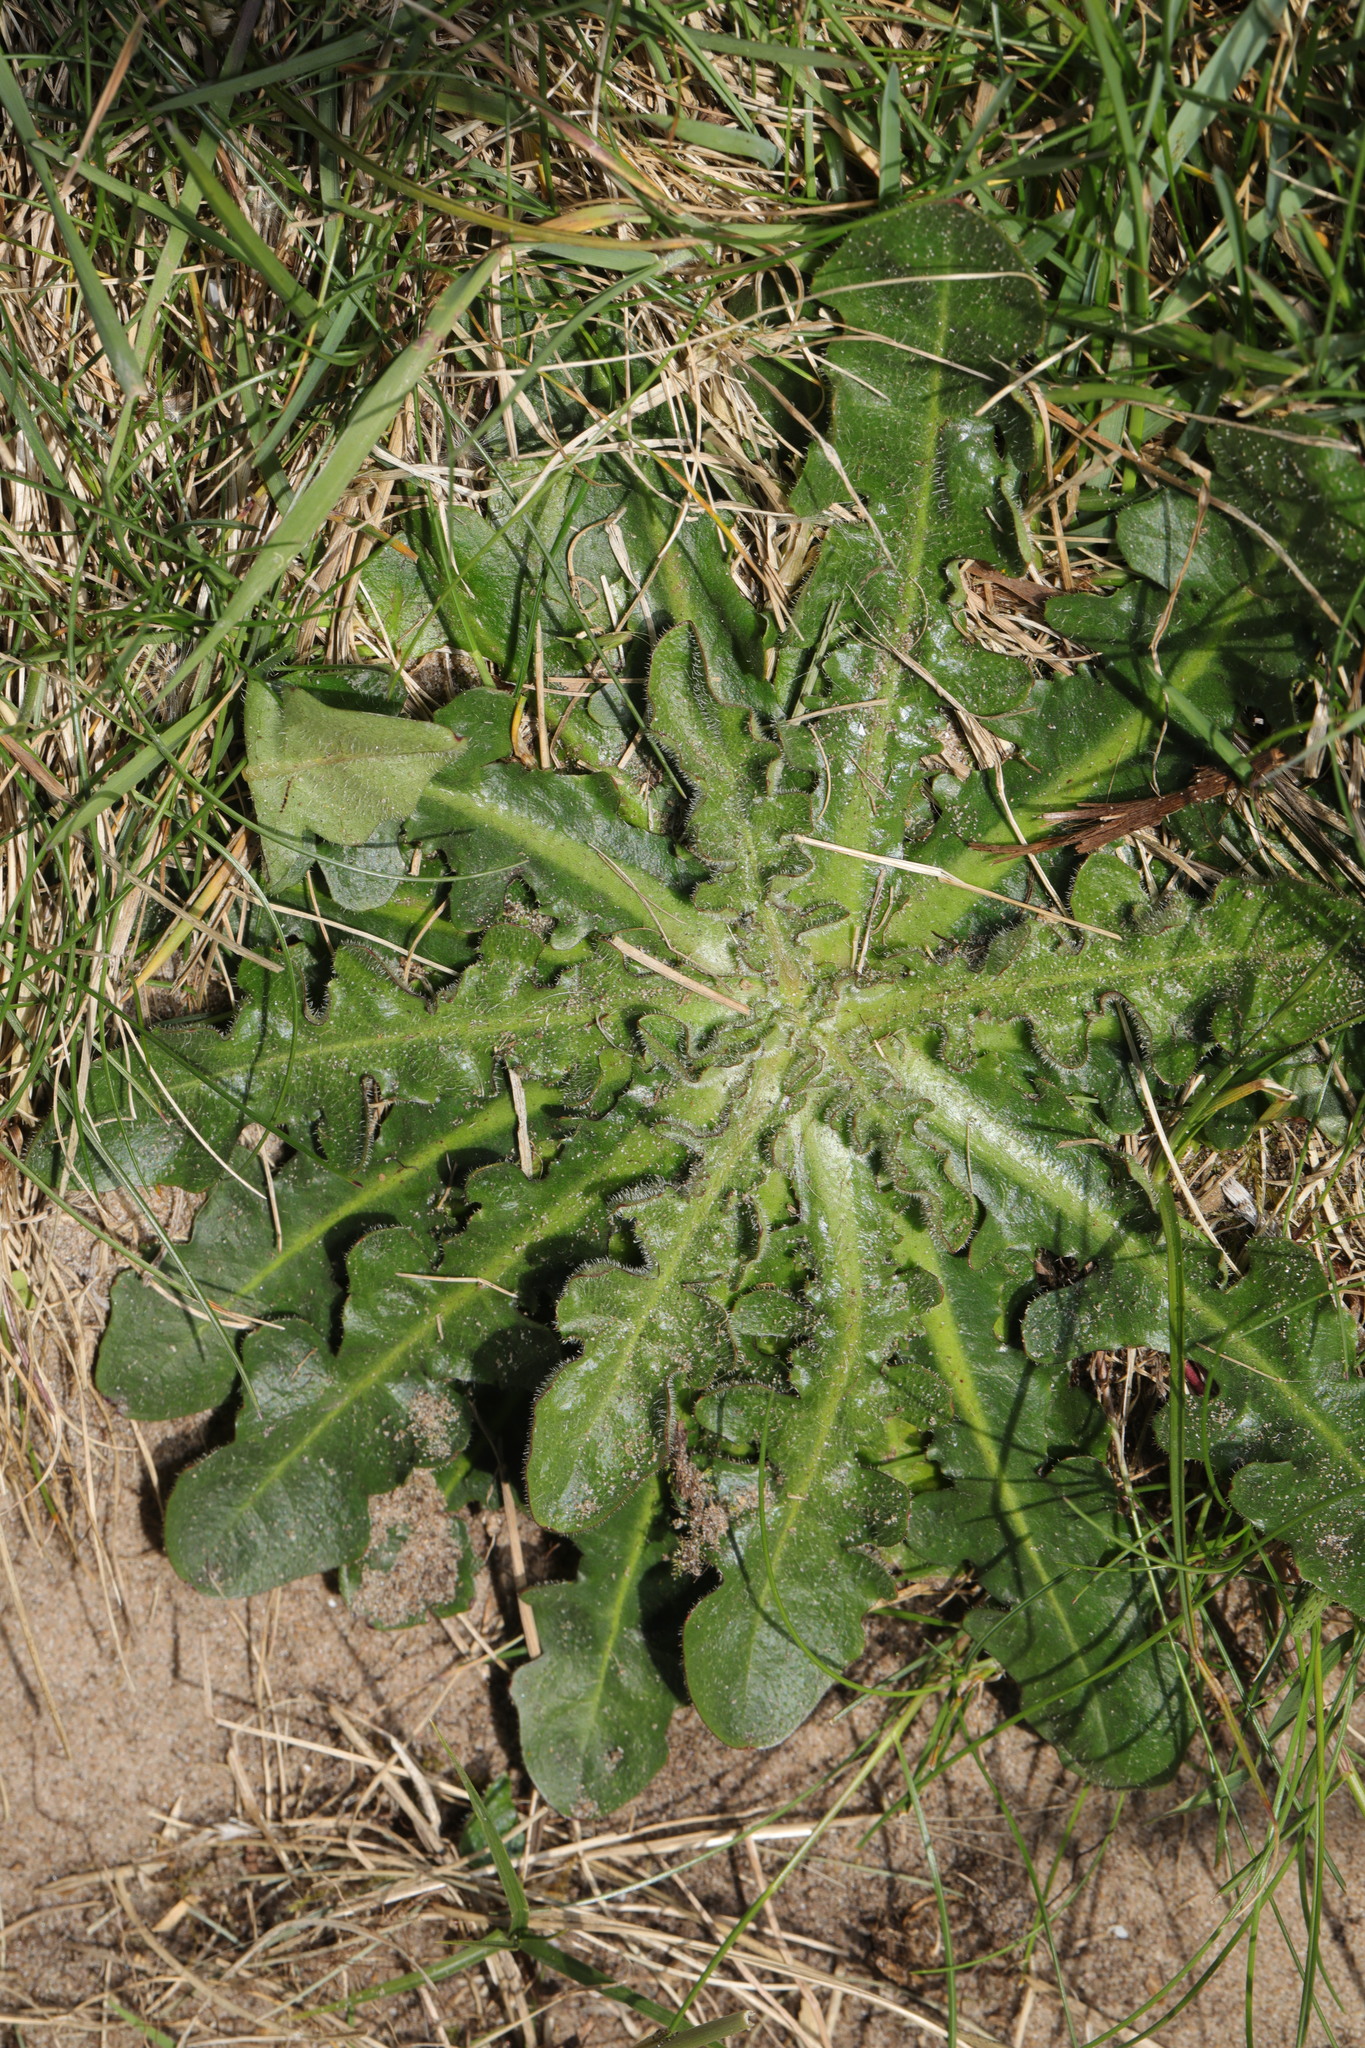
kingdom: Plantae
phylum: Tracheophyta
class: Magnoliopsida
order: Asterales
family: Asteraceae
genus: Hypochaeris
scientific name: Hypochaeris radicata
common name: Flatweed
